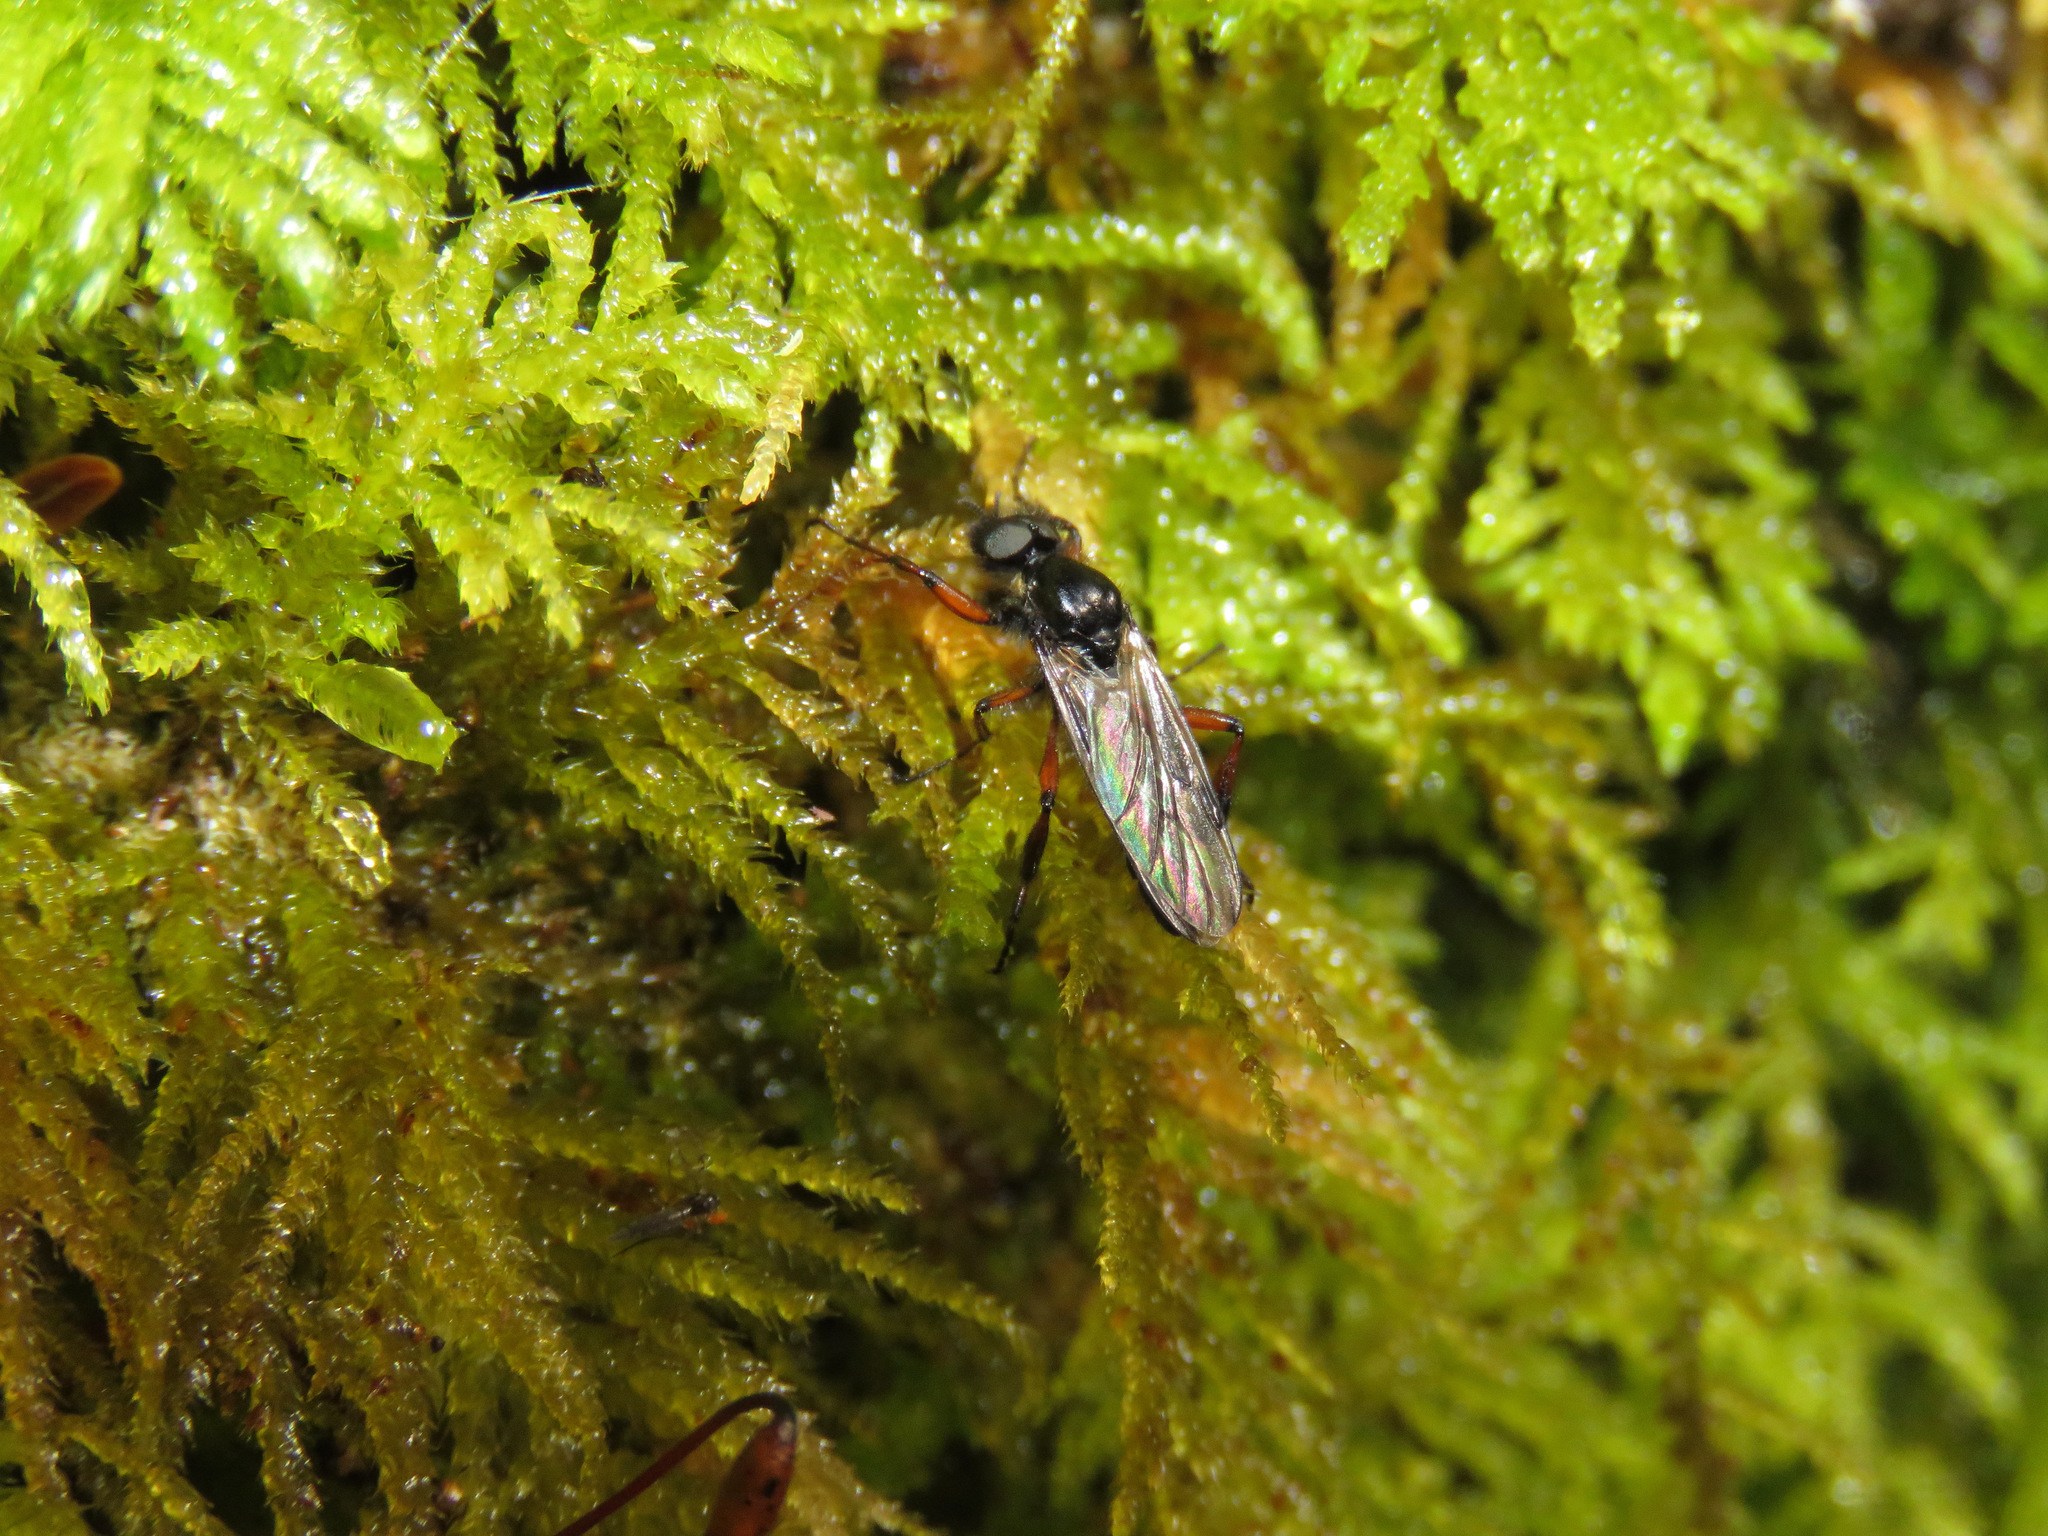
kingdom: Animalia
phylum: Arthropoda
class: Insecta
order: Diptera
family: Bibionidae
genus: Bibio
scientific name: Bibio xanthopus
